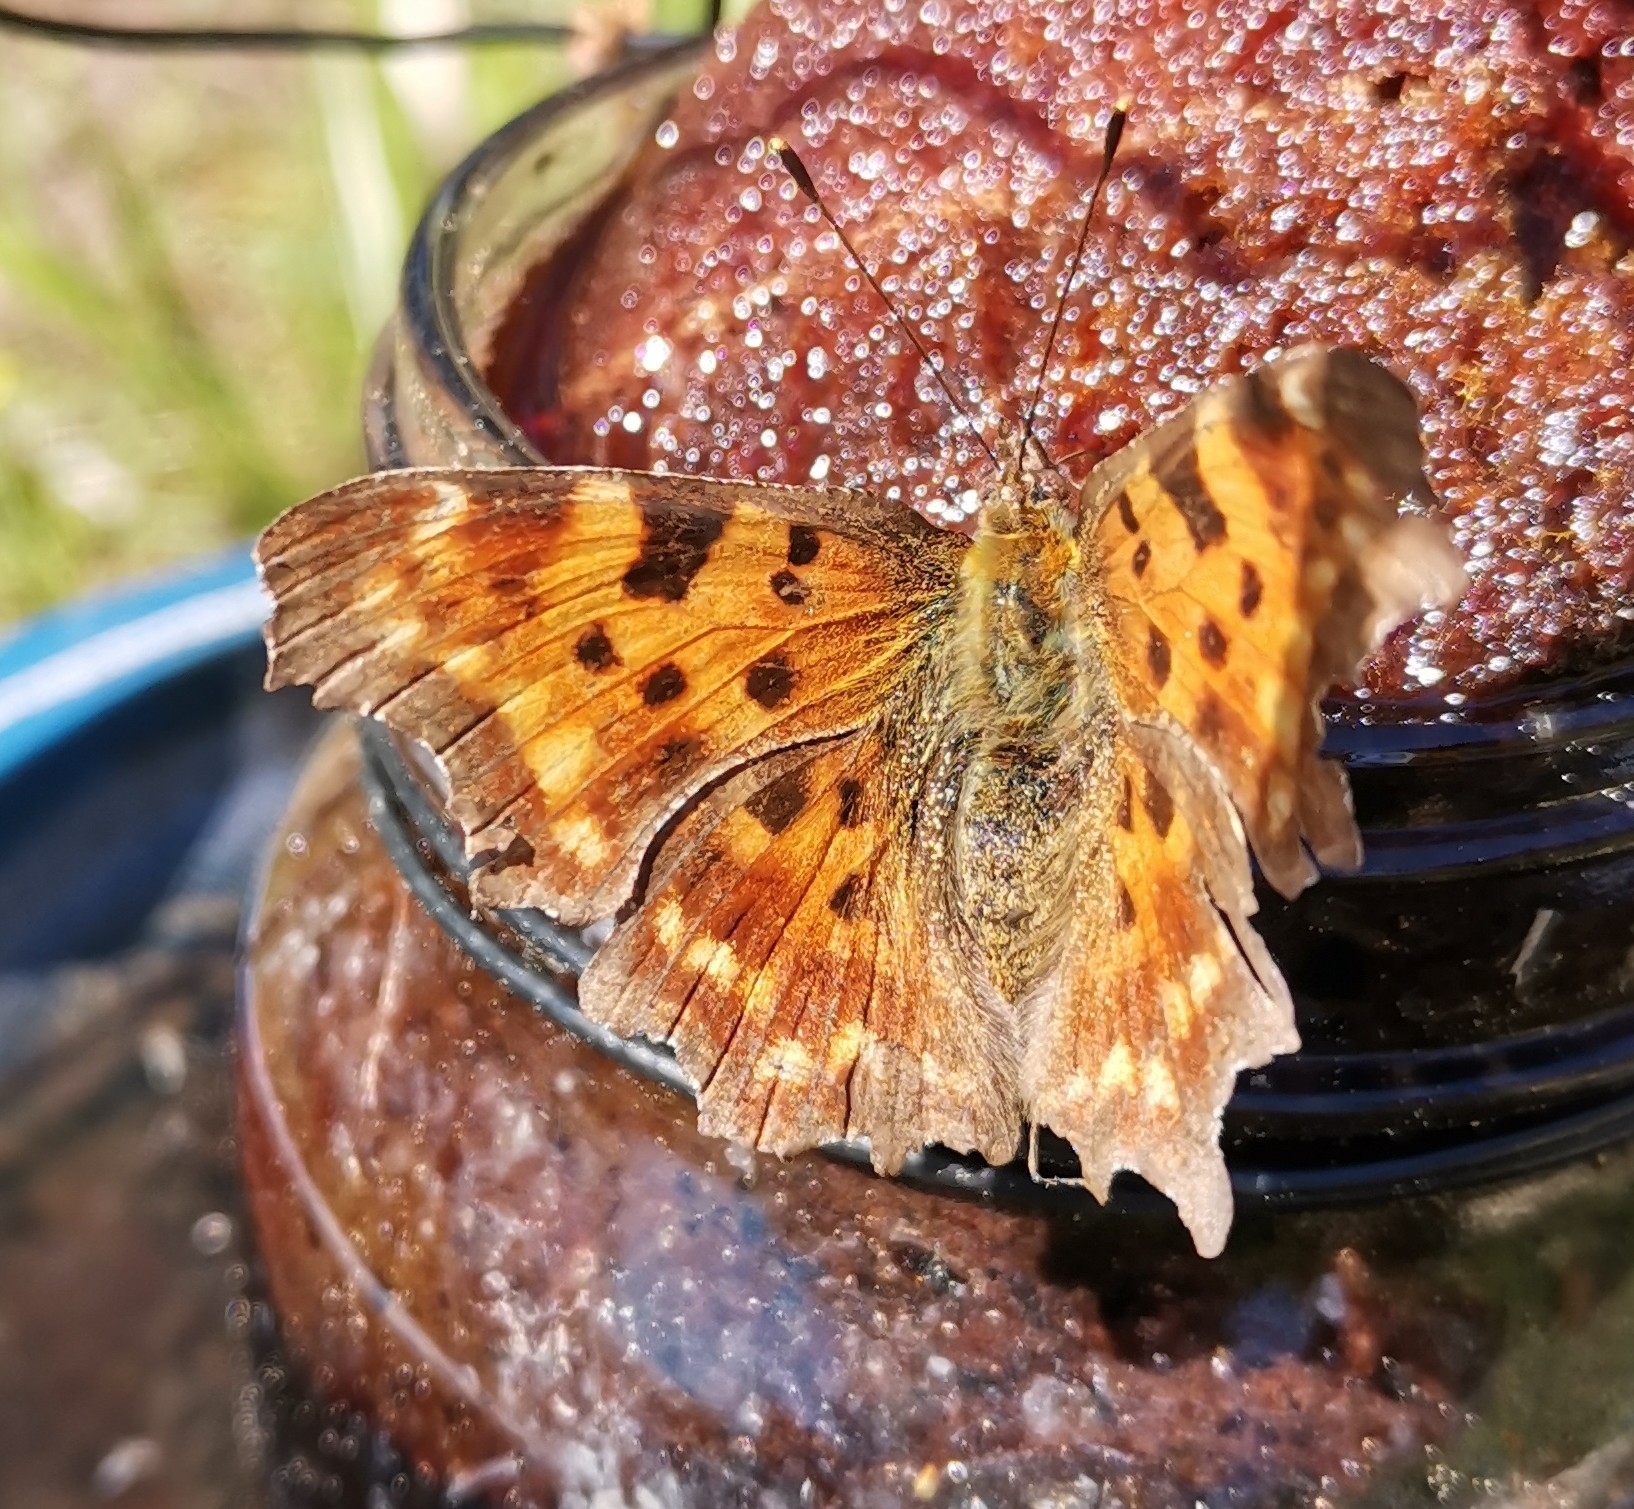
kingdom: Animalia
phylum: Arthropoda
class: Insecta
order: Lepidoptera
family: Nymphalidae
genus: Polygonia
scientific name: Polygonia c-album
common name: Comma
